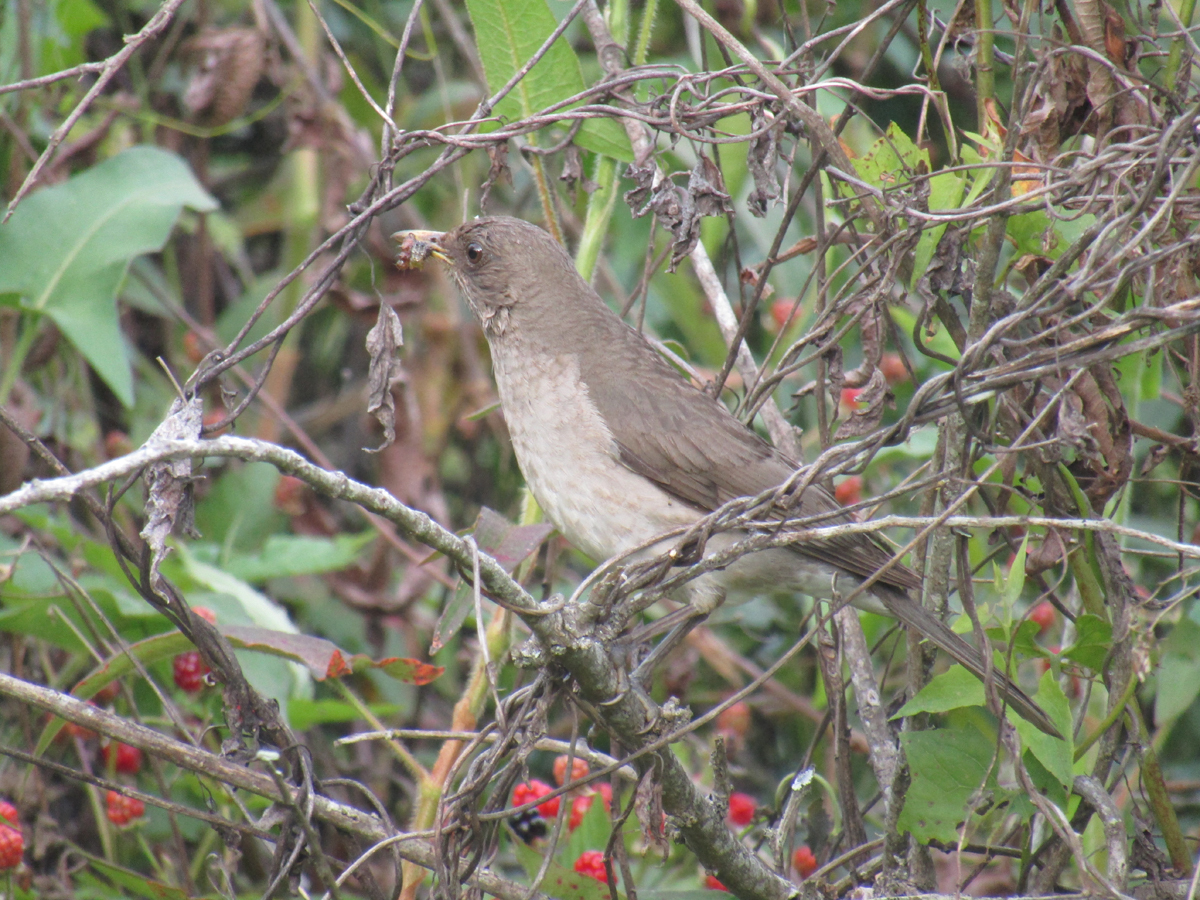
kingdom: Animalia
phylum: Chordata
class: Aves
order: Passeriformes
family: Turdidae
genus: Turdus
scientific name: Turdus amaurochalinus
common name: Creamy-bellied thrush
